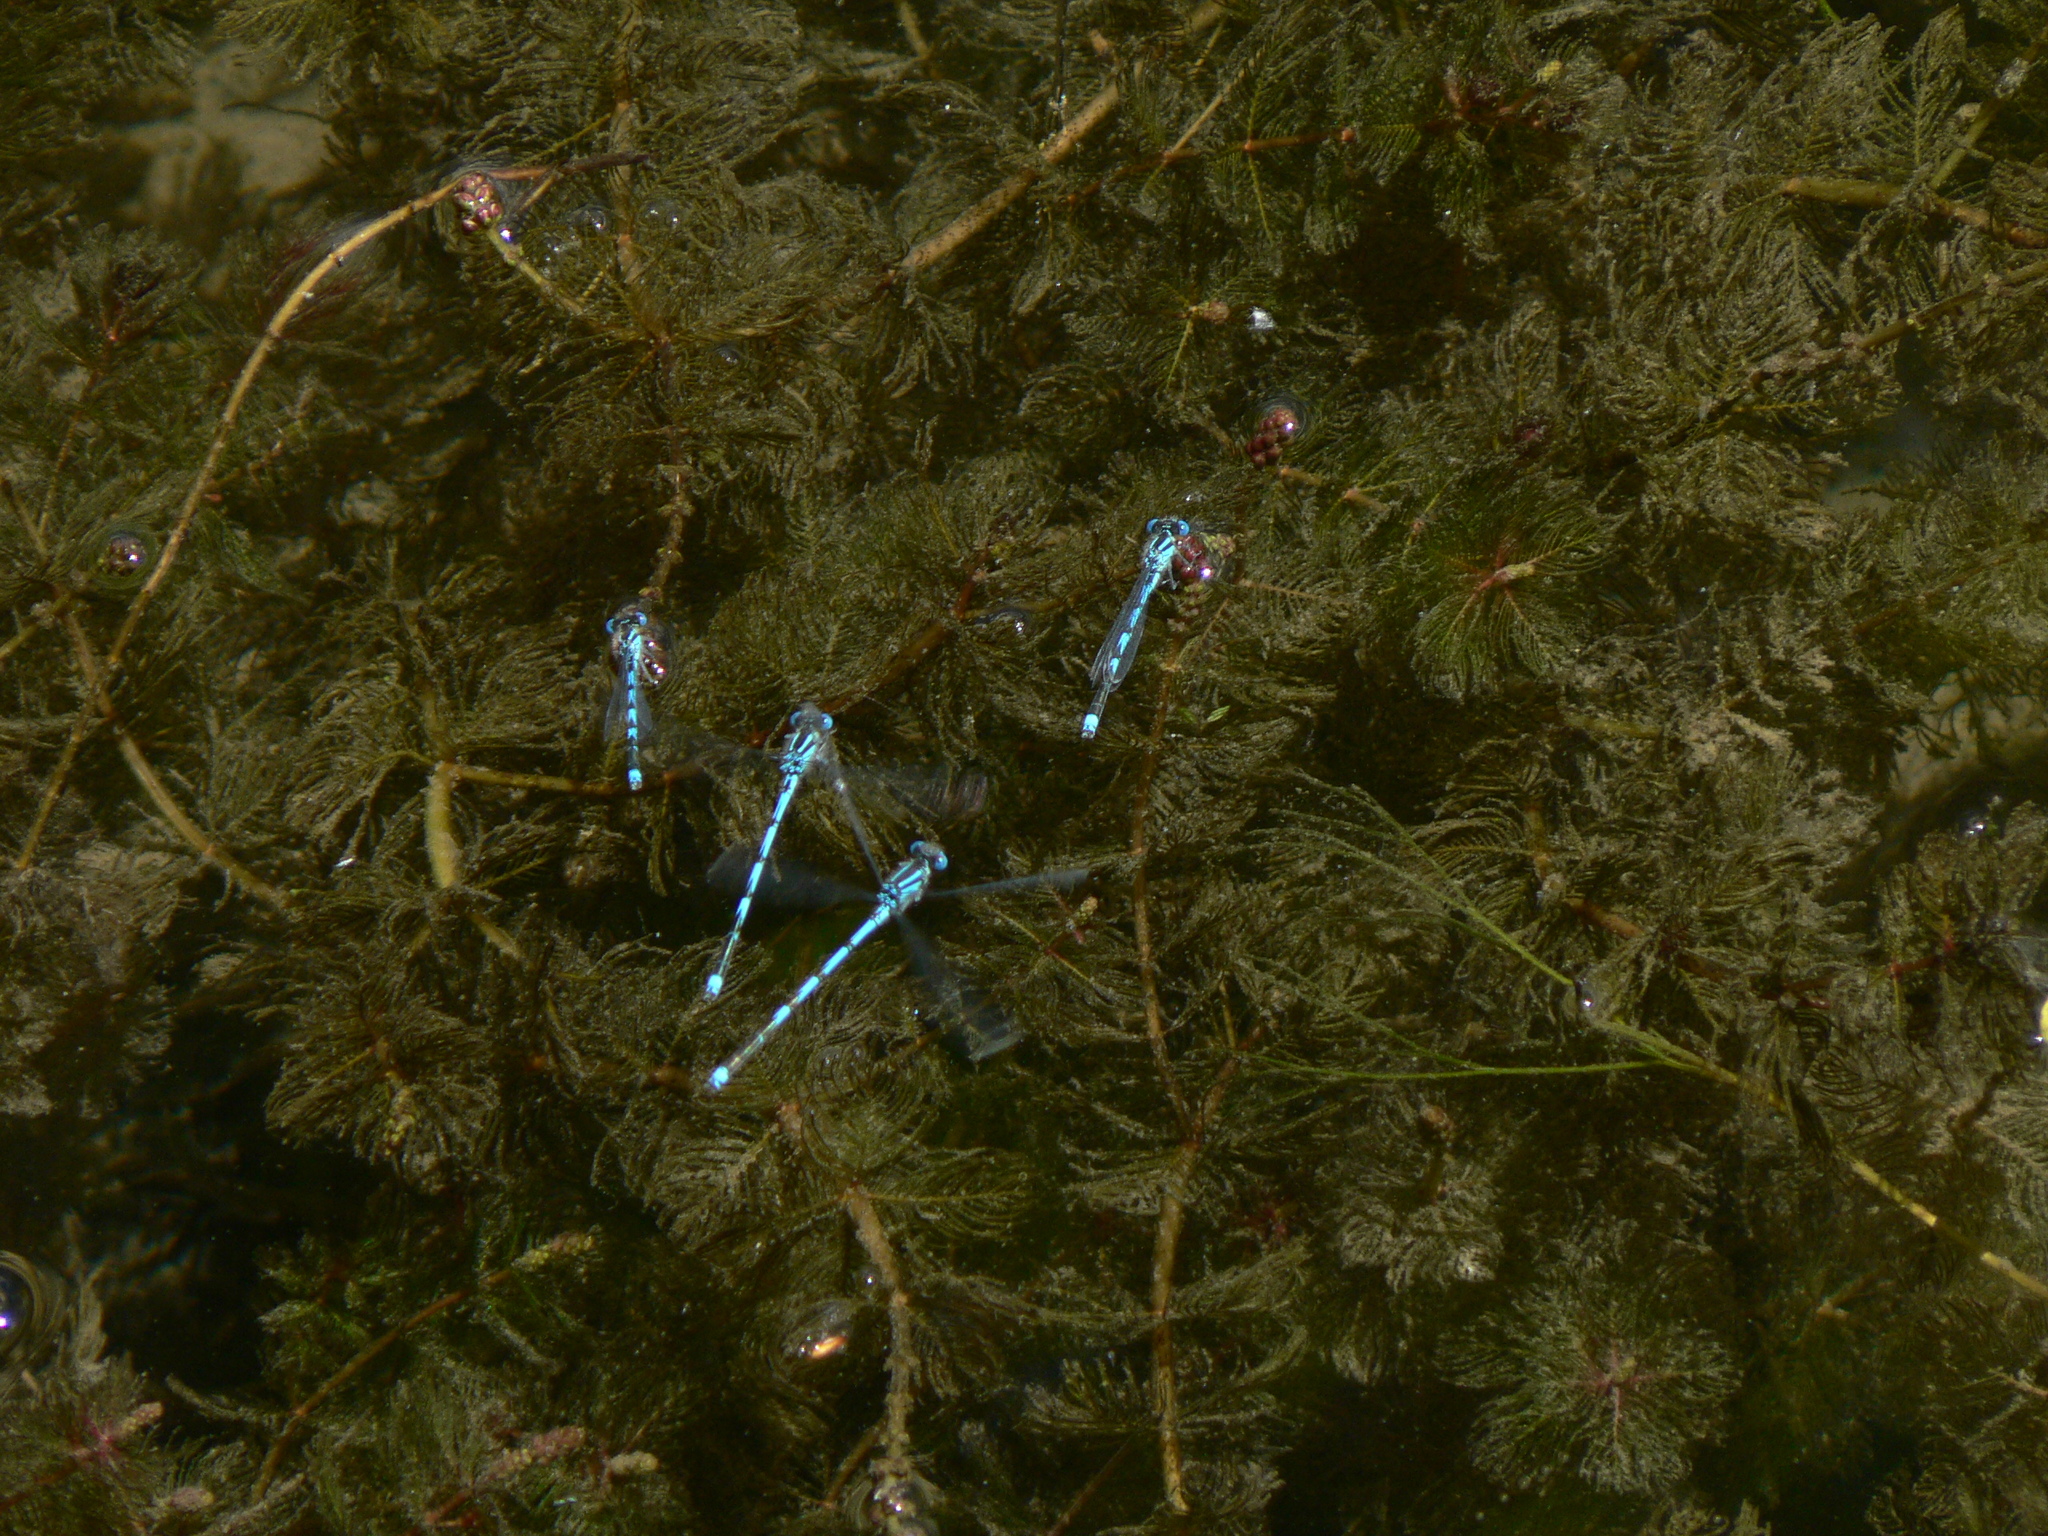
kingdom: Animalia
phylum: Arthropoda
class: Insecta
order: Odonata
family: Coenagrionidae
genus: Erythromma
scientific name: Erythromma lindenii
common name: Blue-eye
